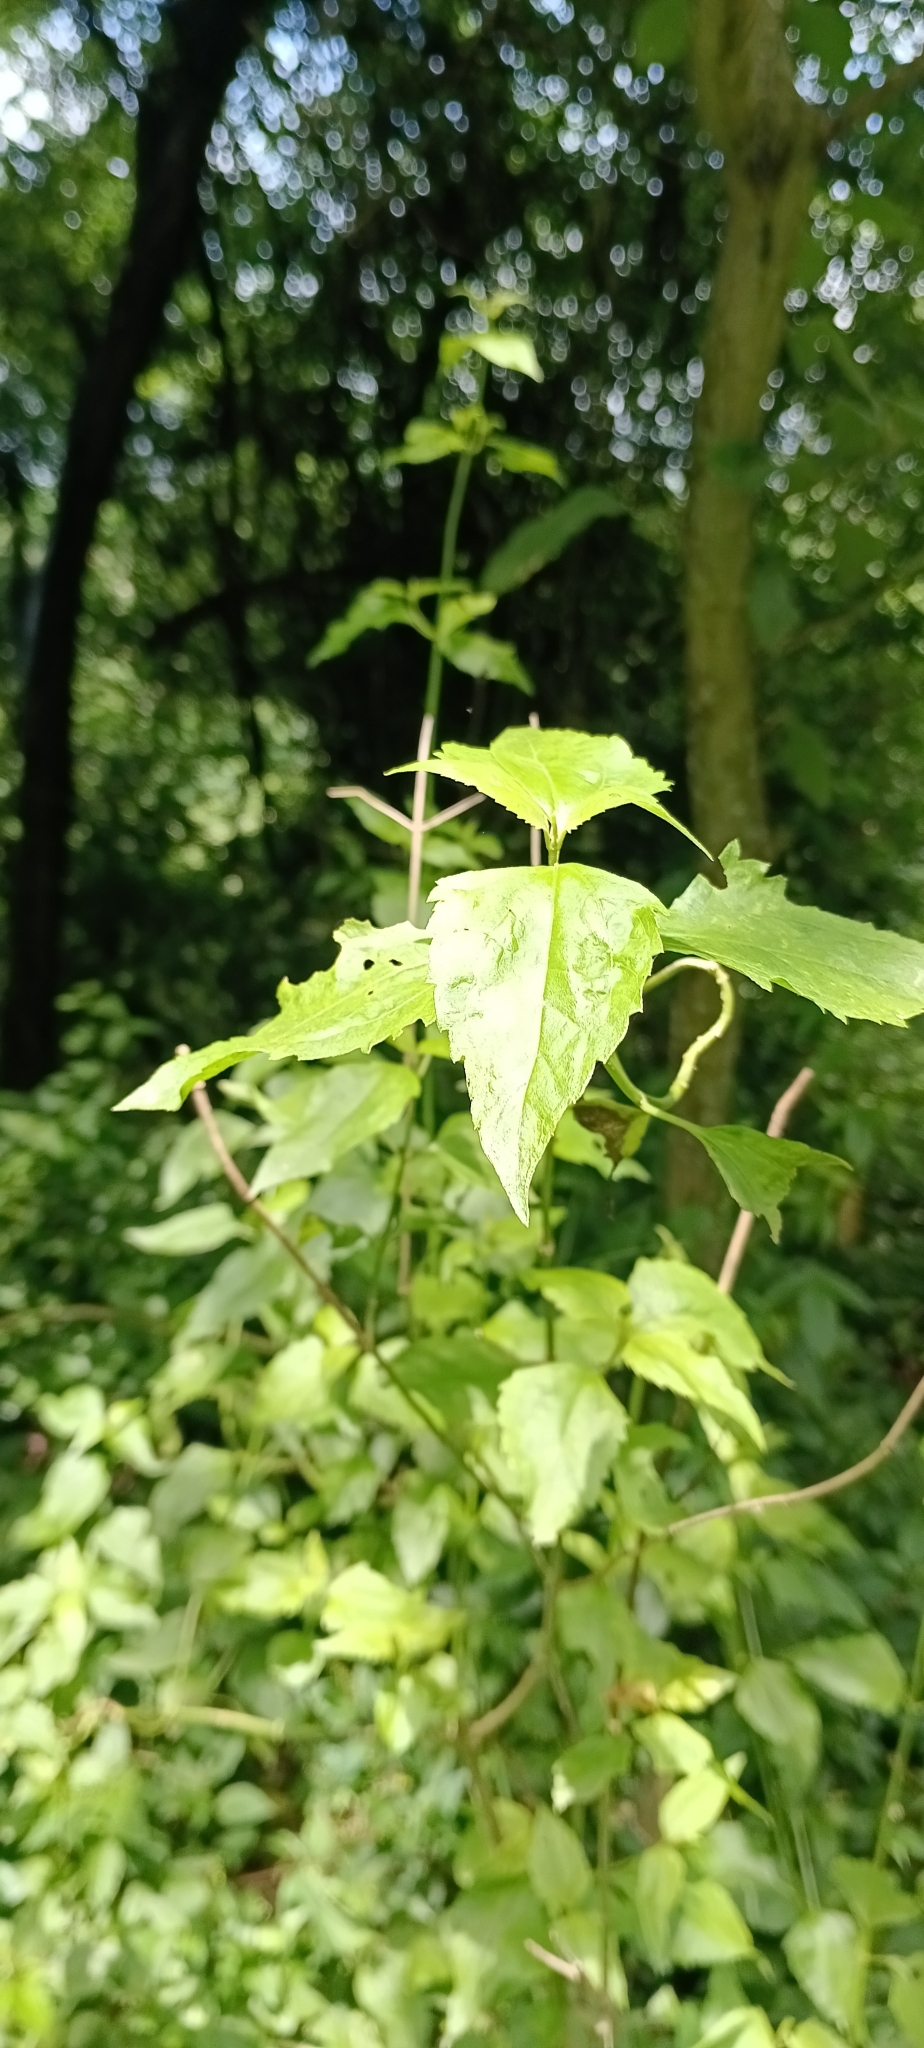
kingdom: Plantae
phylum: Tracheophyta
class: Magnoliopsida
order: Asterales
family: Asteraceae
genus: Chromolaena
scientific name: Chromolaena odorata
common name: Siamweed
